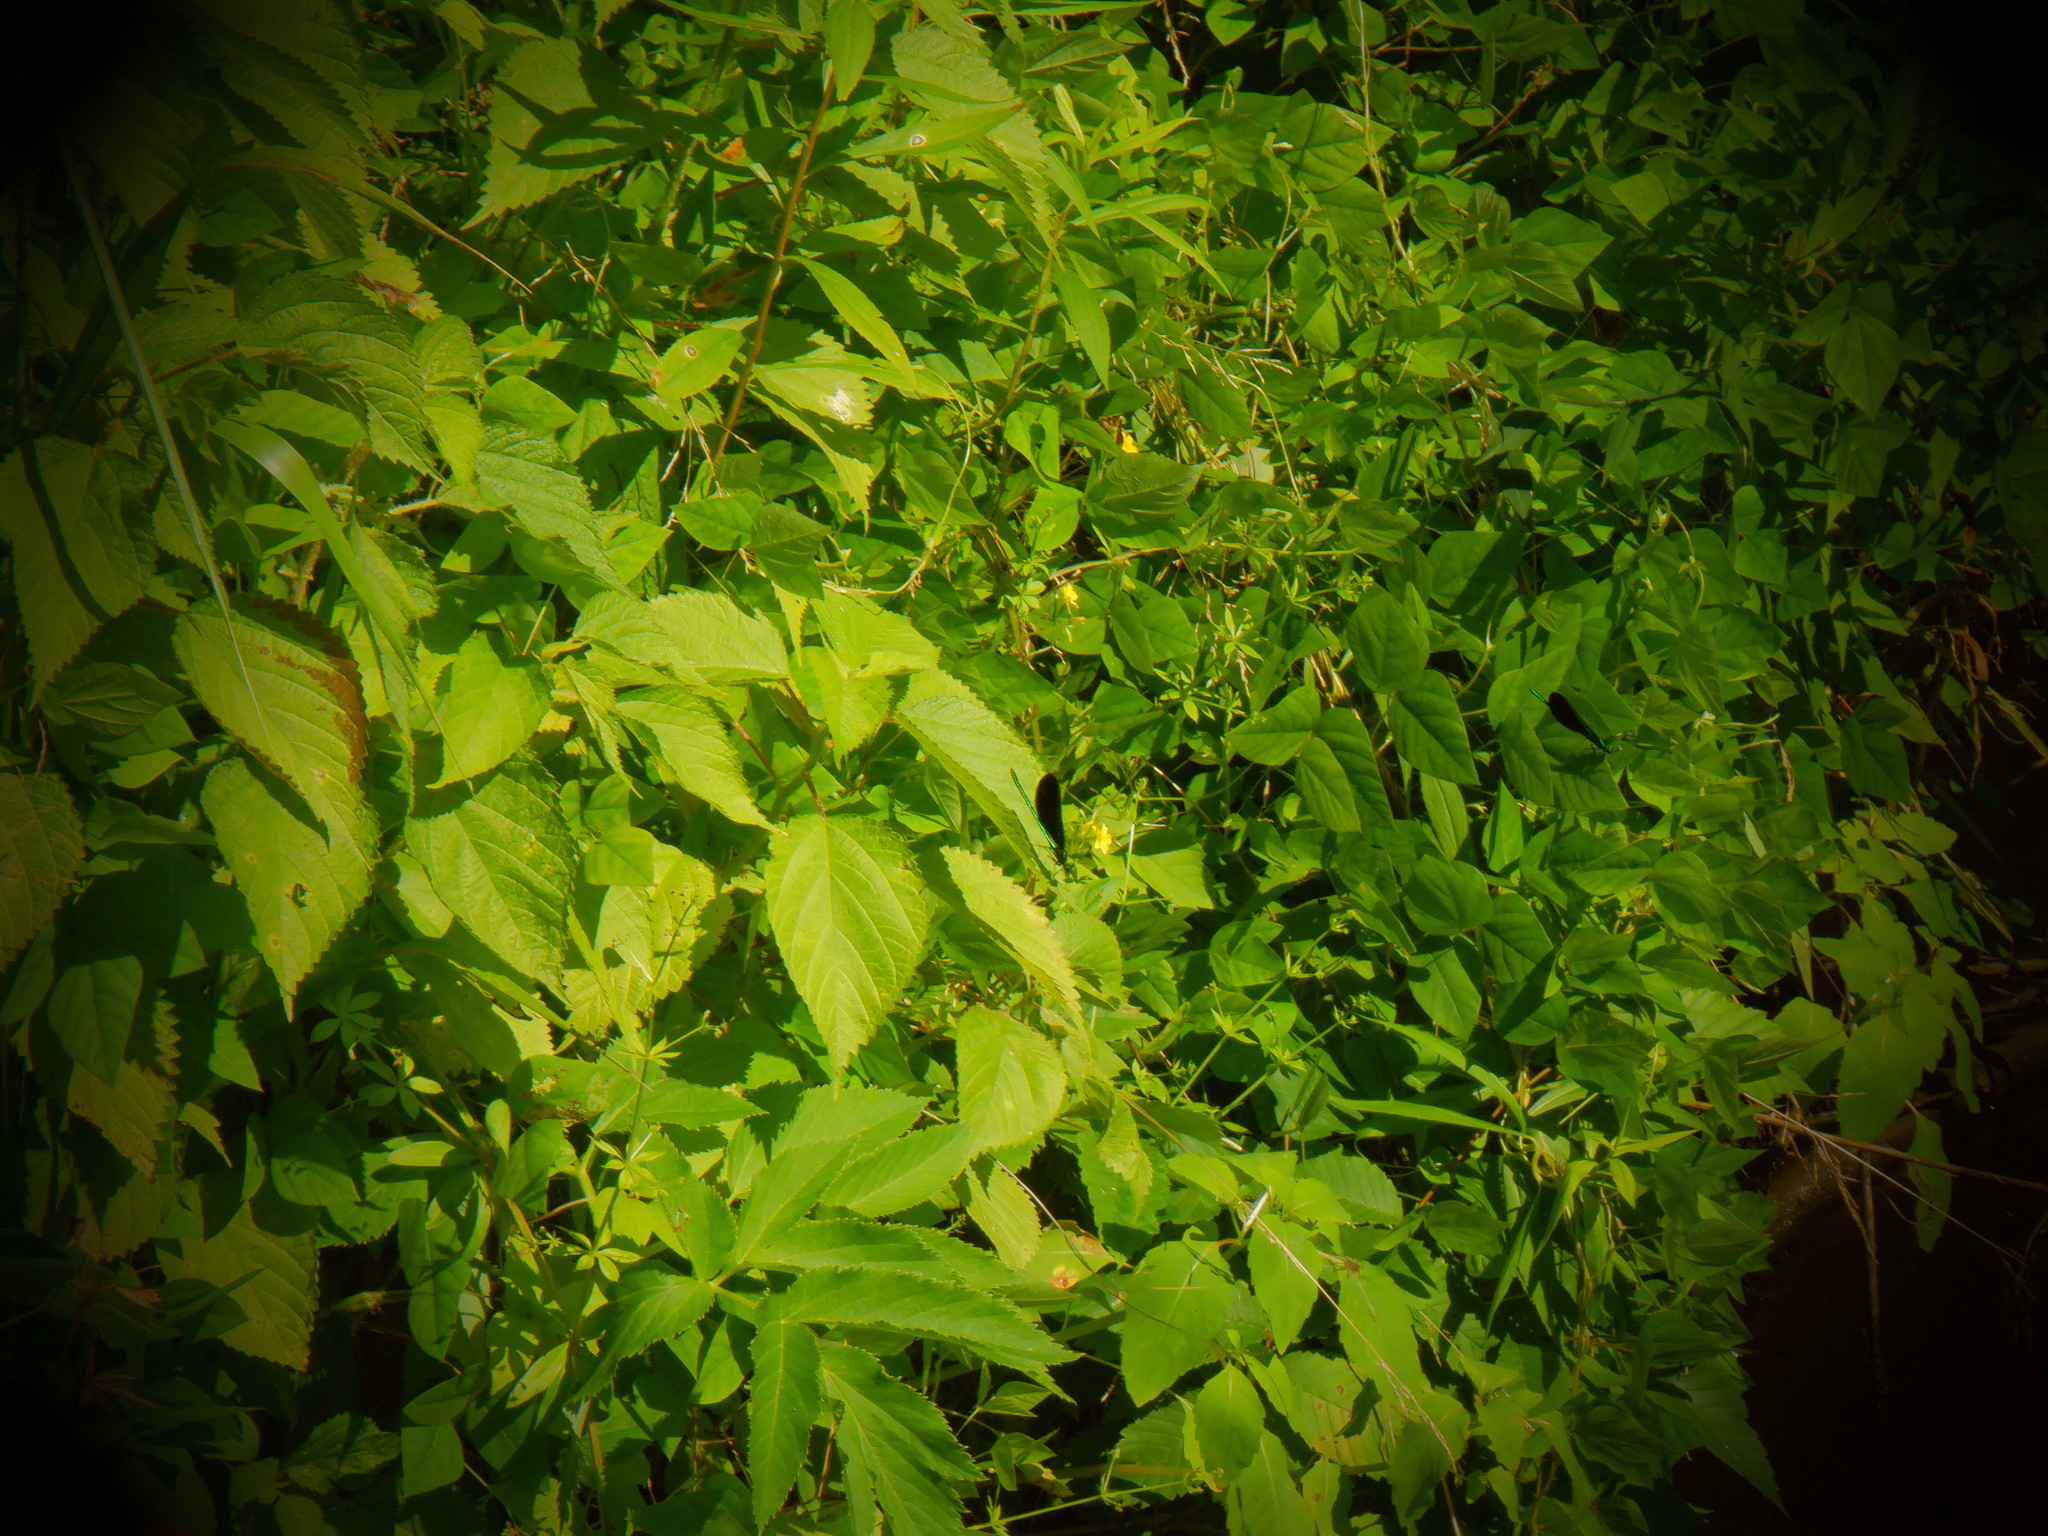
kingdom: Animalia
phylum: Arthropoda
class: Insecta
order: Odonata
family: Calopterygidae
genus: Calopteryx
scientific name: Calopteryx maculata
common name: Ebony jewelwing
